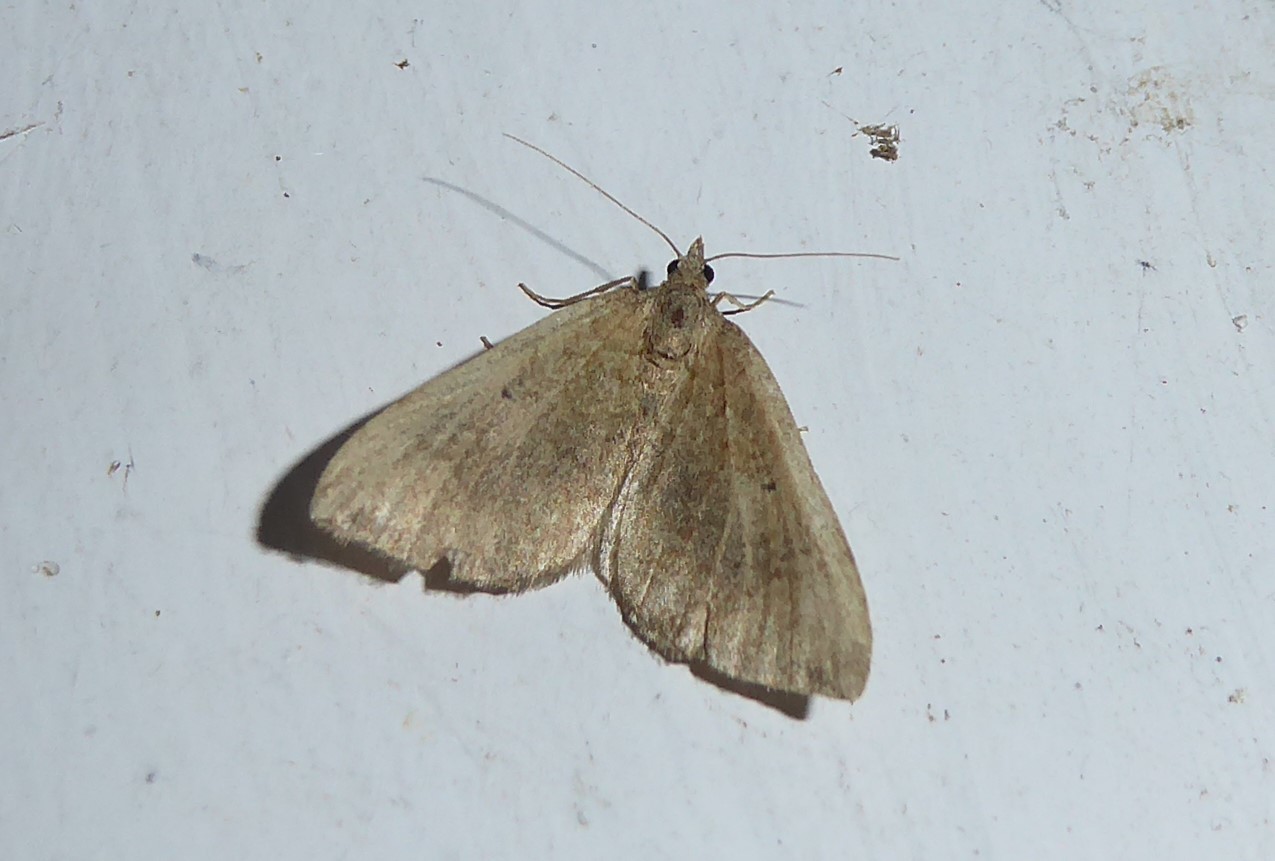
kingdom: Animalia
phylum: Arthropoda
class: Insecta
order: Lepidoptera
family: Geometridae
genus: Epyaxa
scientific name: Epyaxa rosearia
